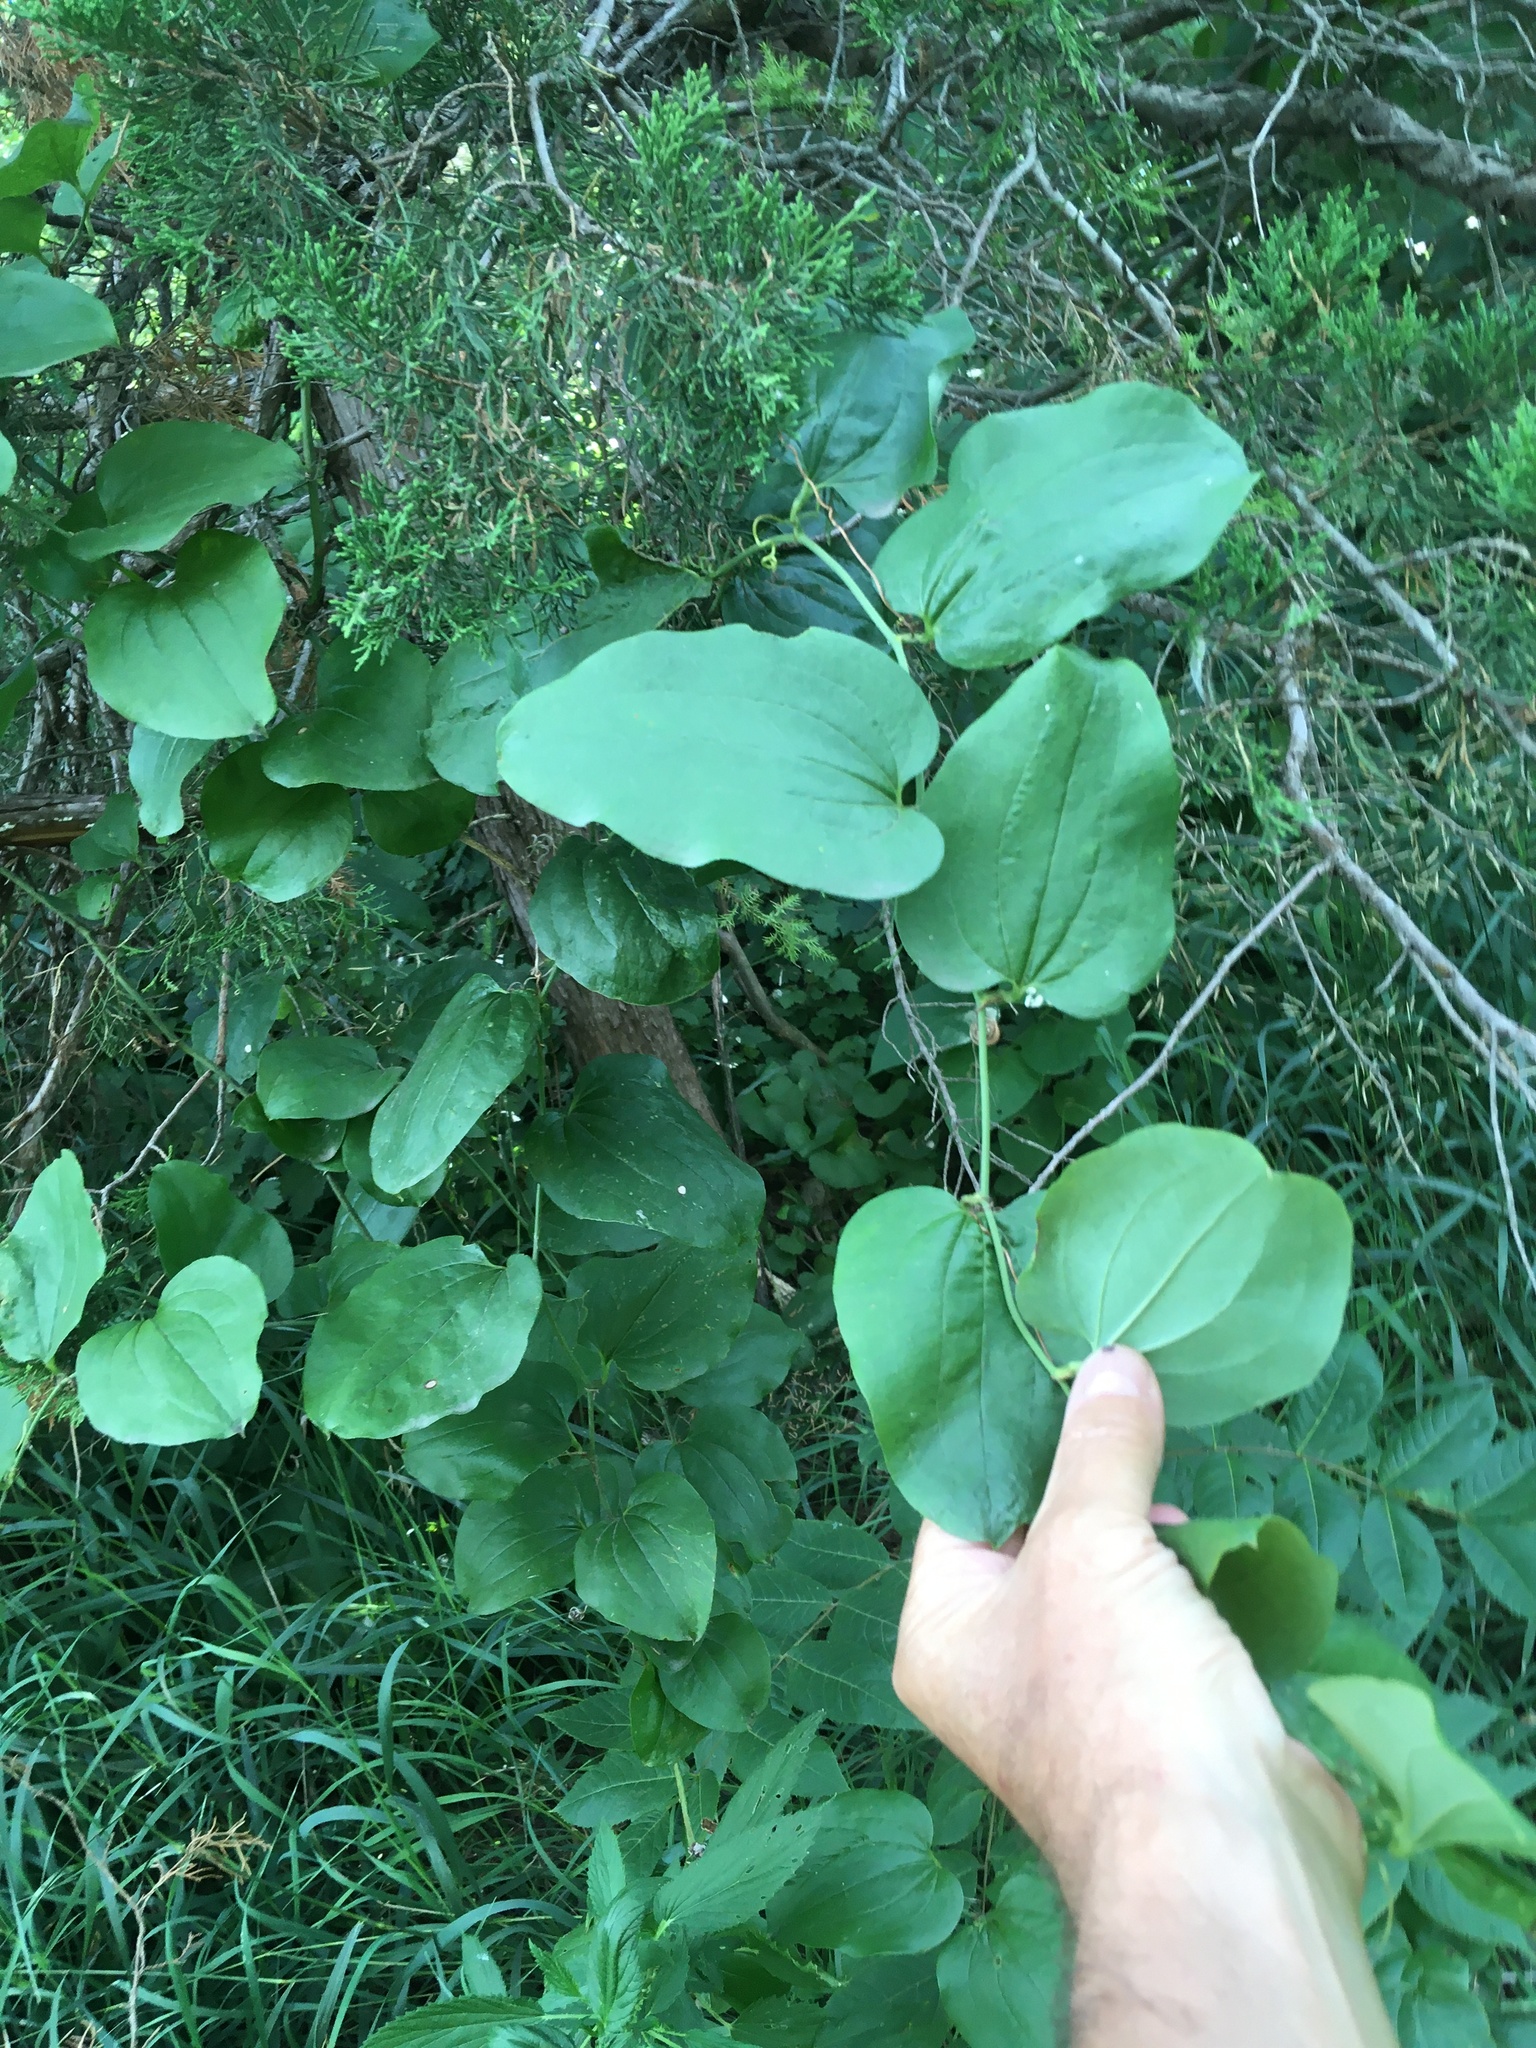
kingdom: Plantae
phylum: Tracheophyta
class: Liliopsida
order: Liliales
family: Smilacaceae
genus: Smilax
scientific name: Smilax tamnoides
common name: Hellfetter
